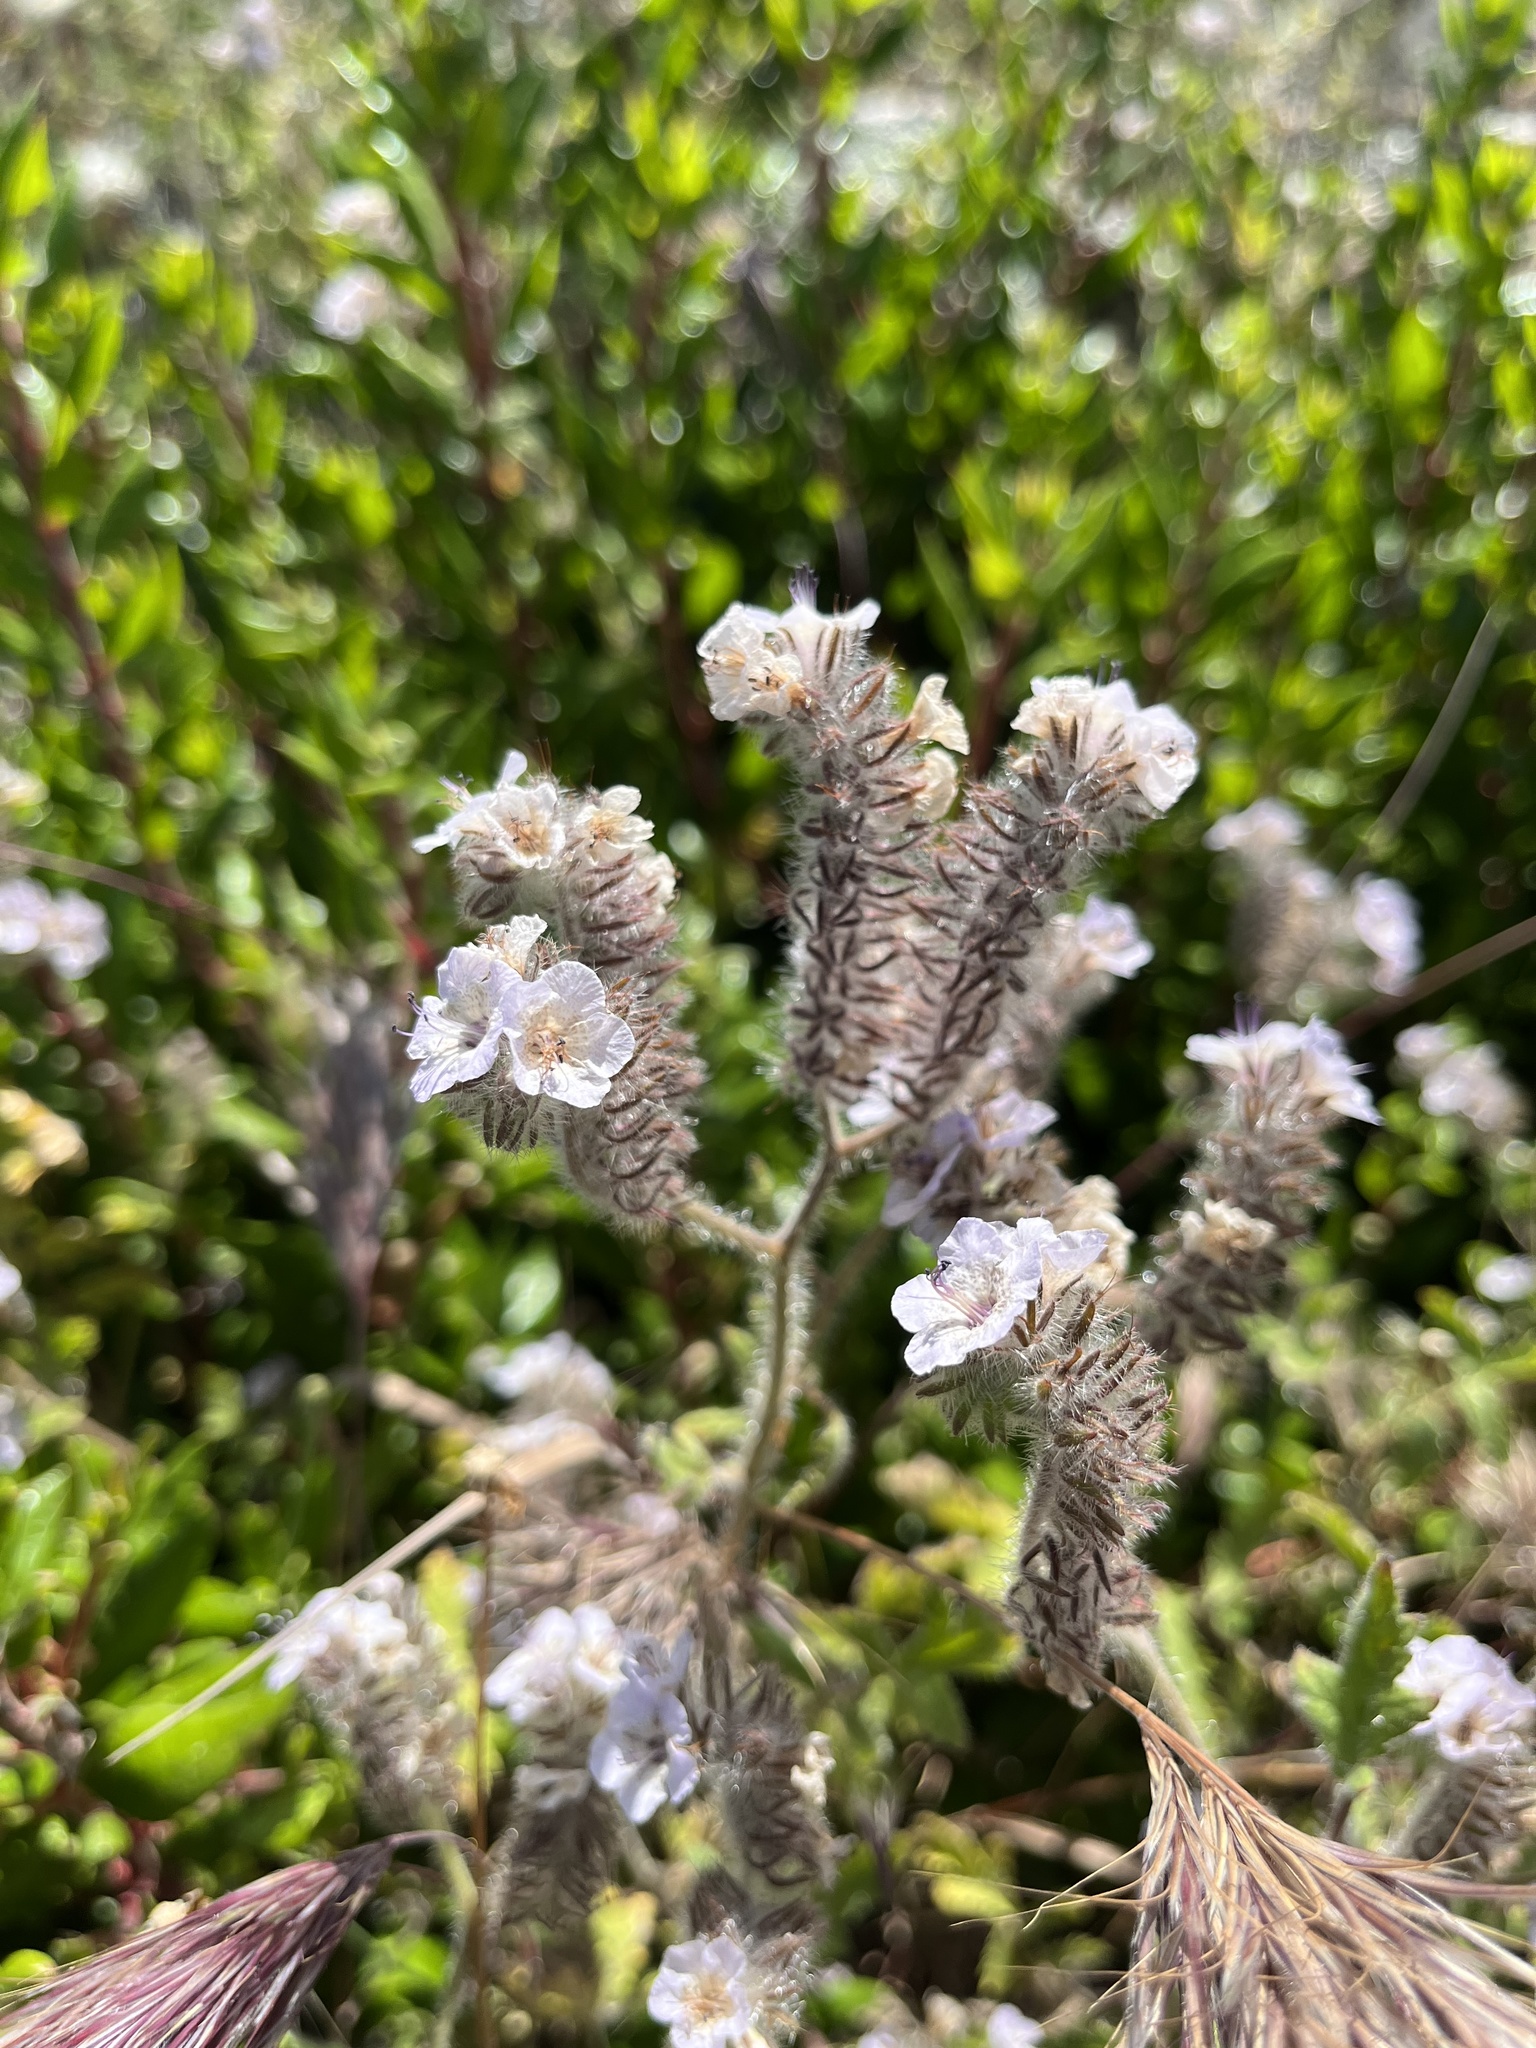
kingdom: Plantae
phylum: Tracheophyta
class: Magnoliopsida
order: Boraginales
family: Hydrophyllaceae
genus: Phacelia
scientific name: Phacelia cicutaria
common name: Caterpillar phacelia
